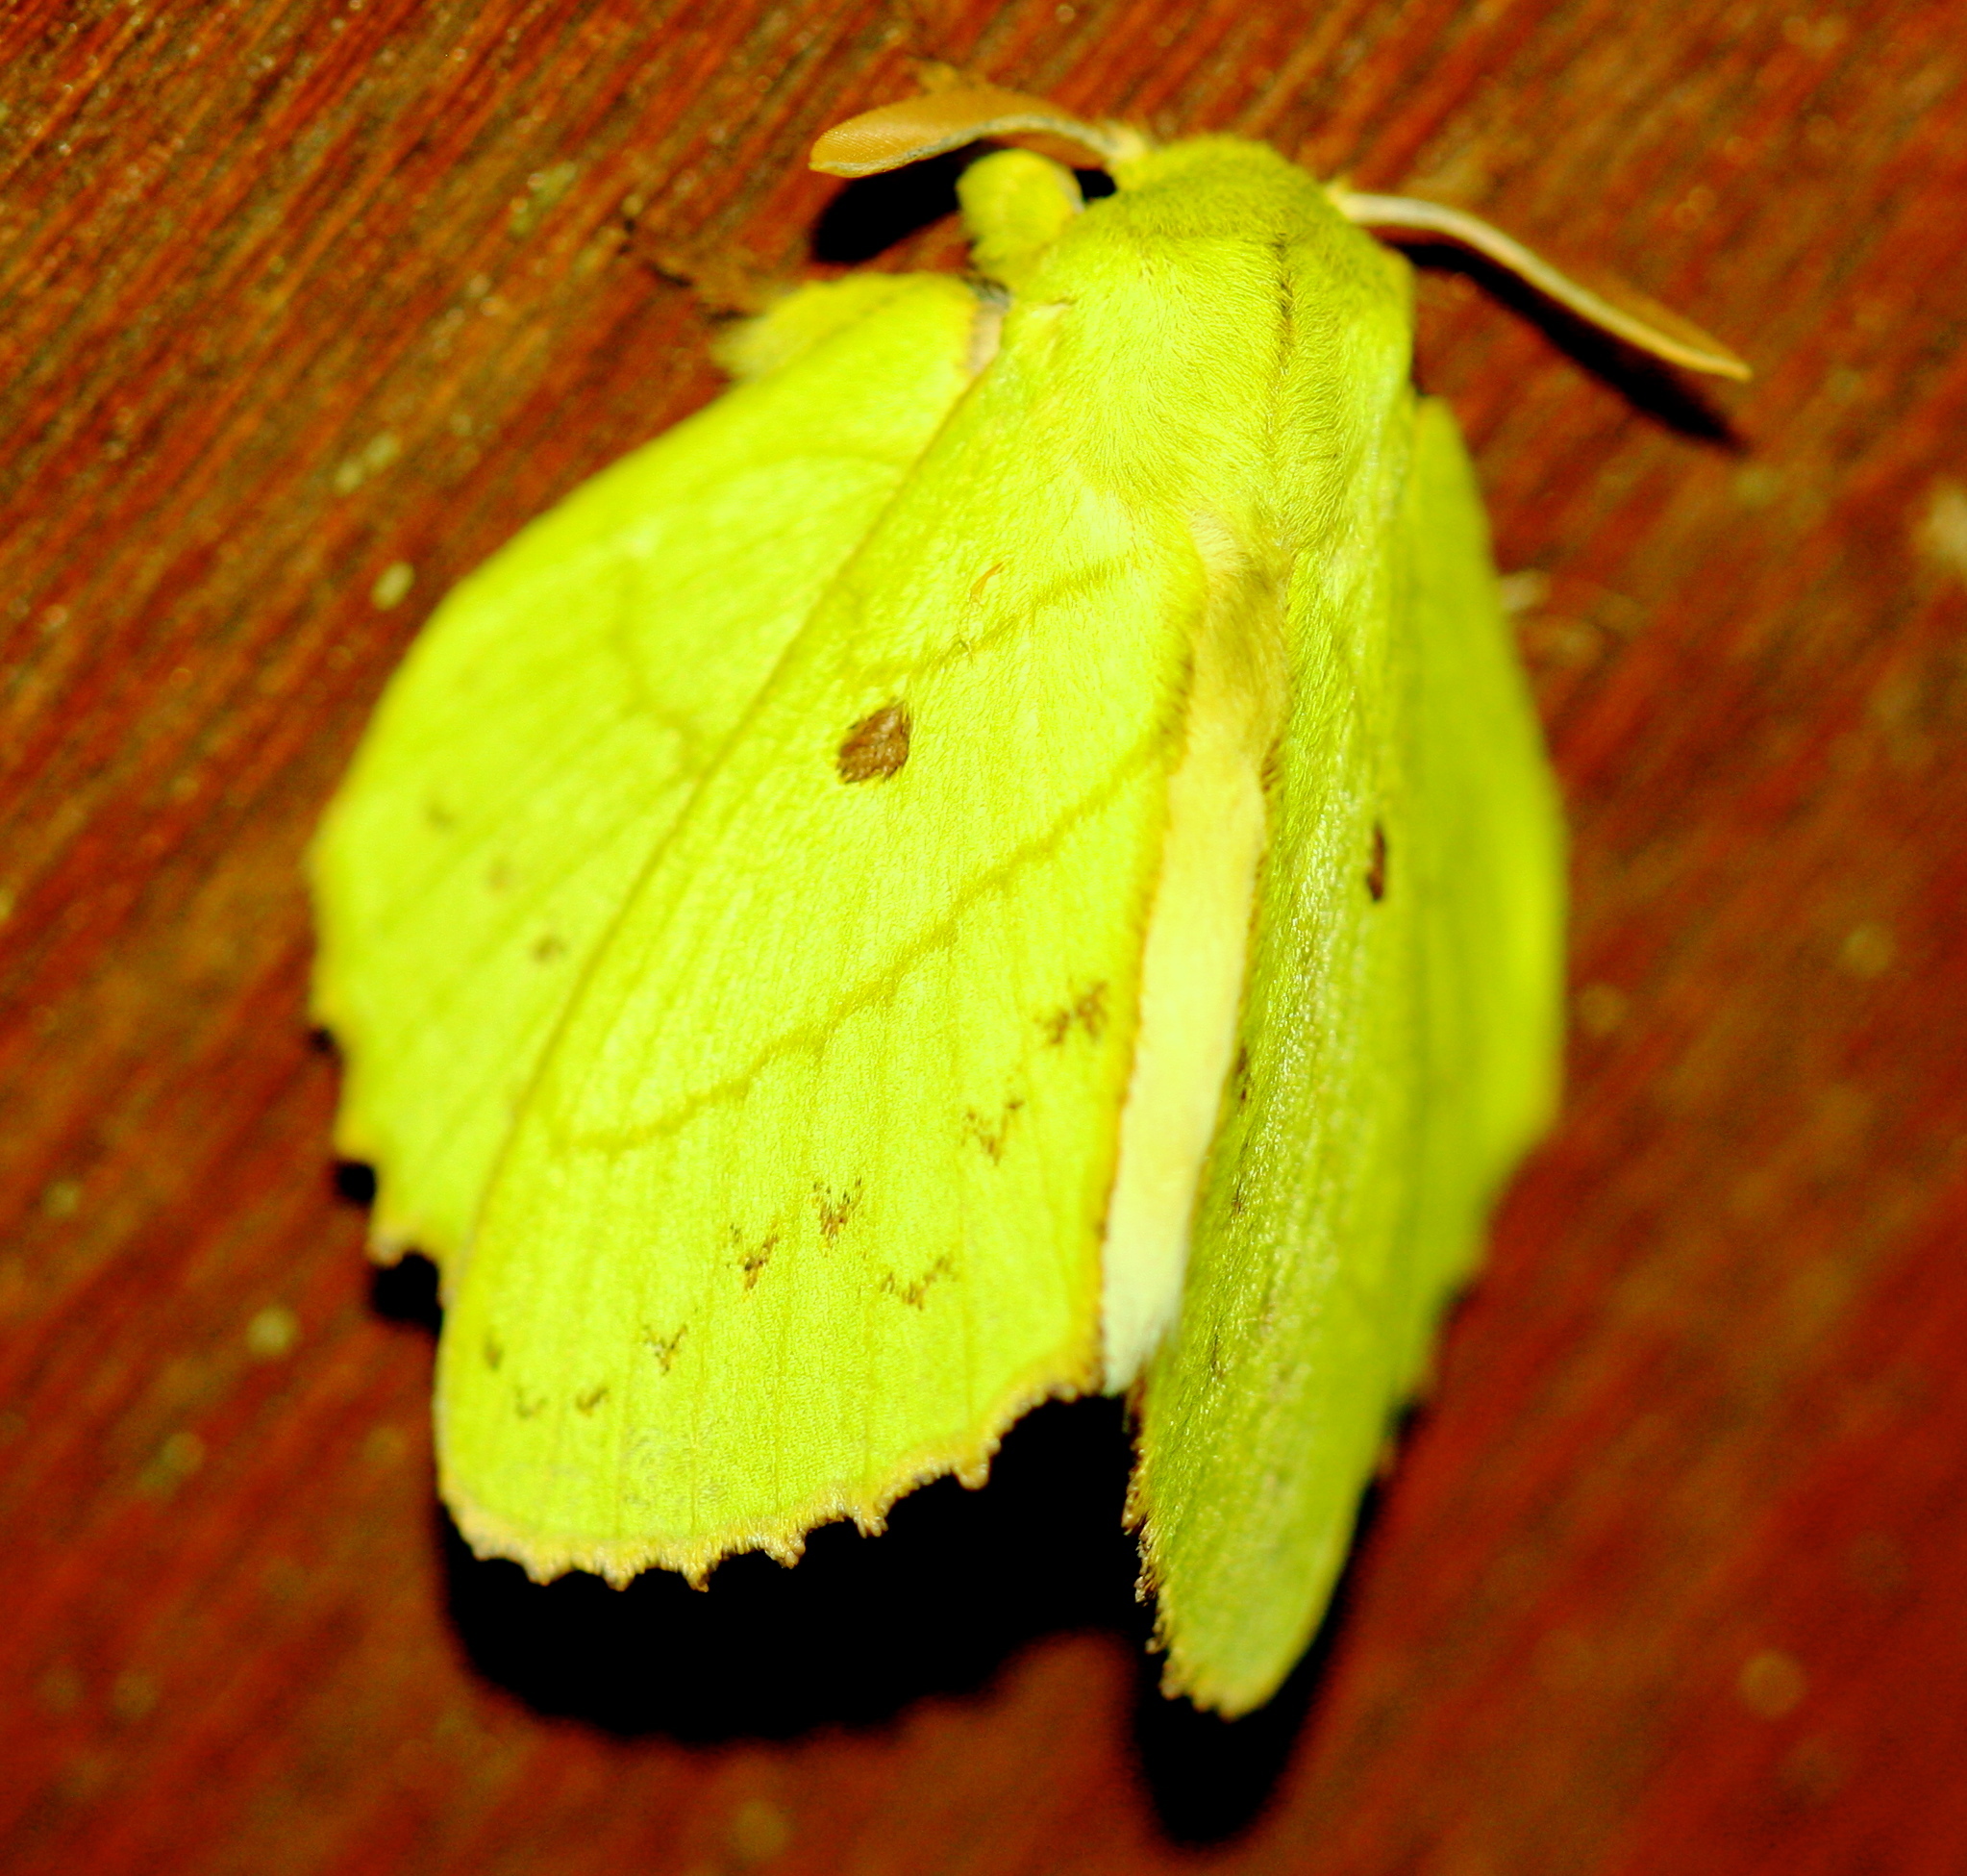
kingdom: Animalia
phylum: Arthropoda
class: Insecta
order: Lepidoptera
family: Lasiocampidae
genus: Trabala
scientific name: Trabala krishna
